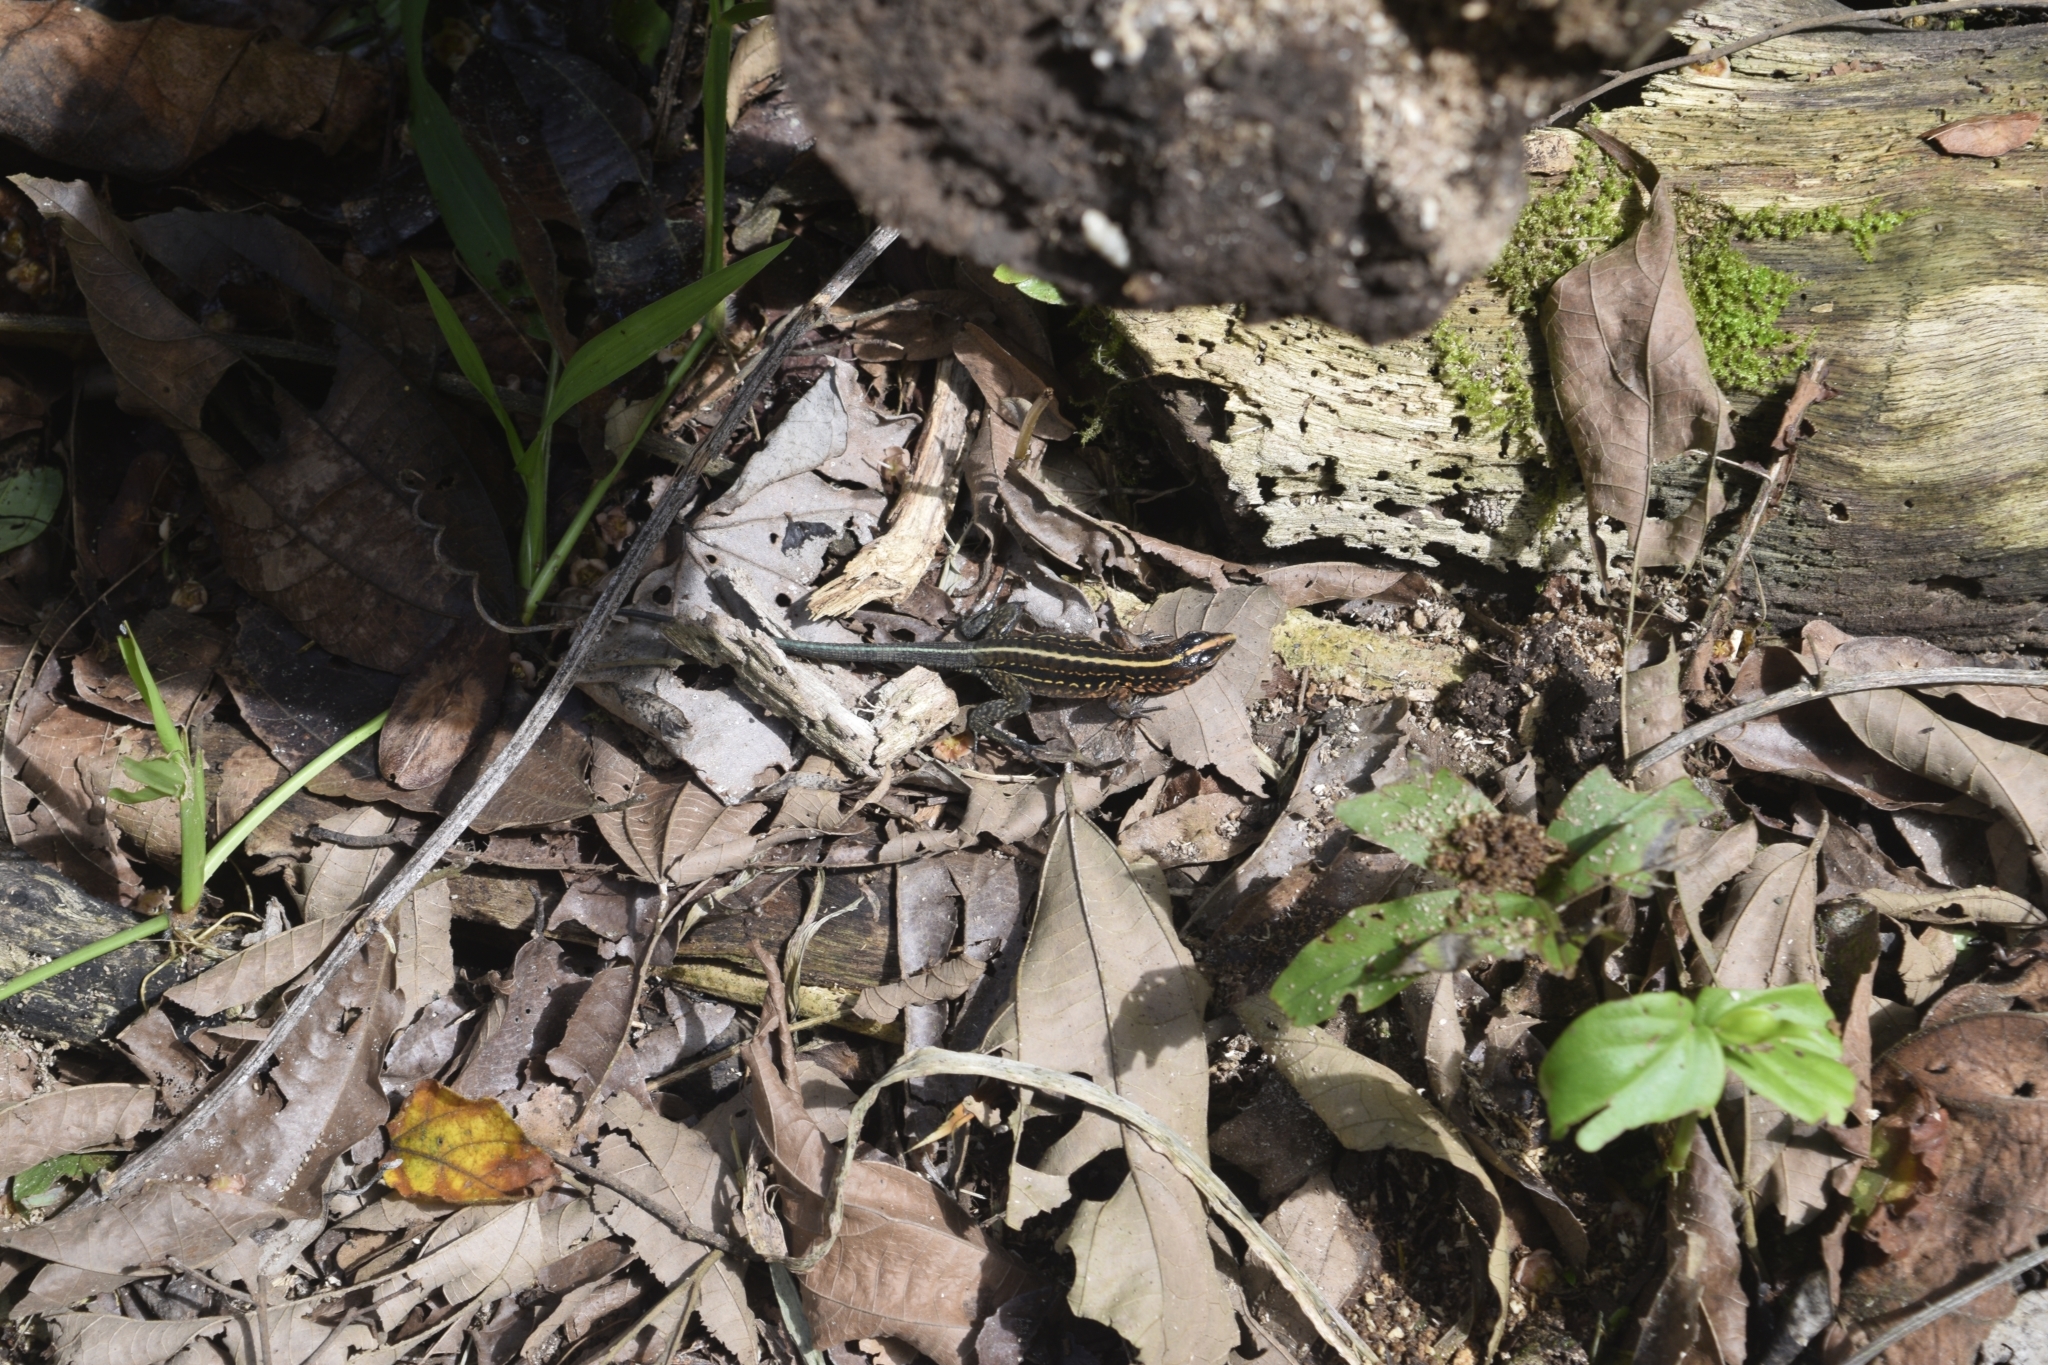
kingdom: Animalia
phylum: Chordata
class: Squamata
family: Teiidae
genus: Holcosus
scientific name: Holcosus festivus
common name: Middle american ameiva
